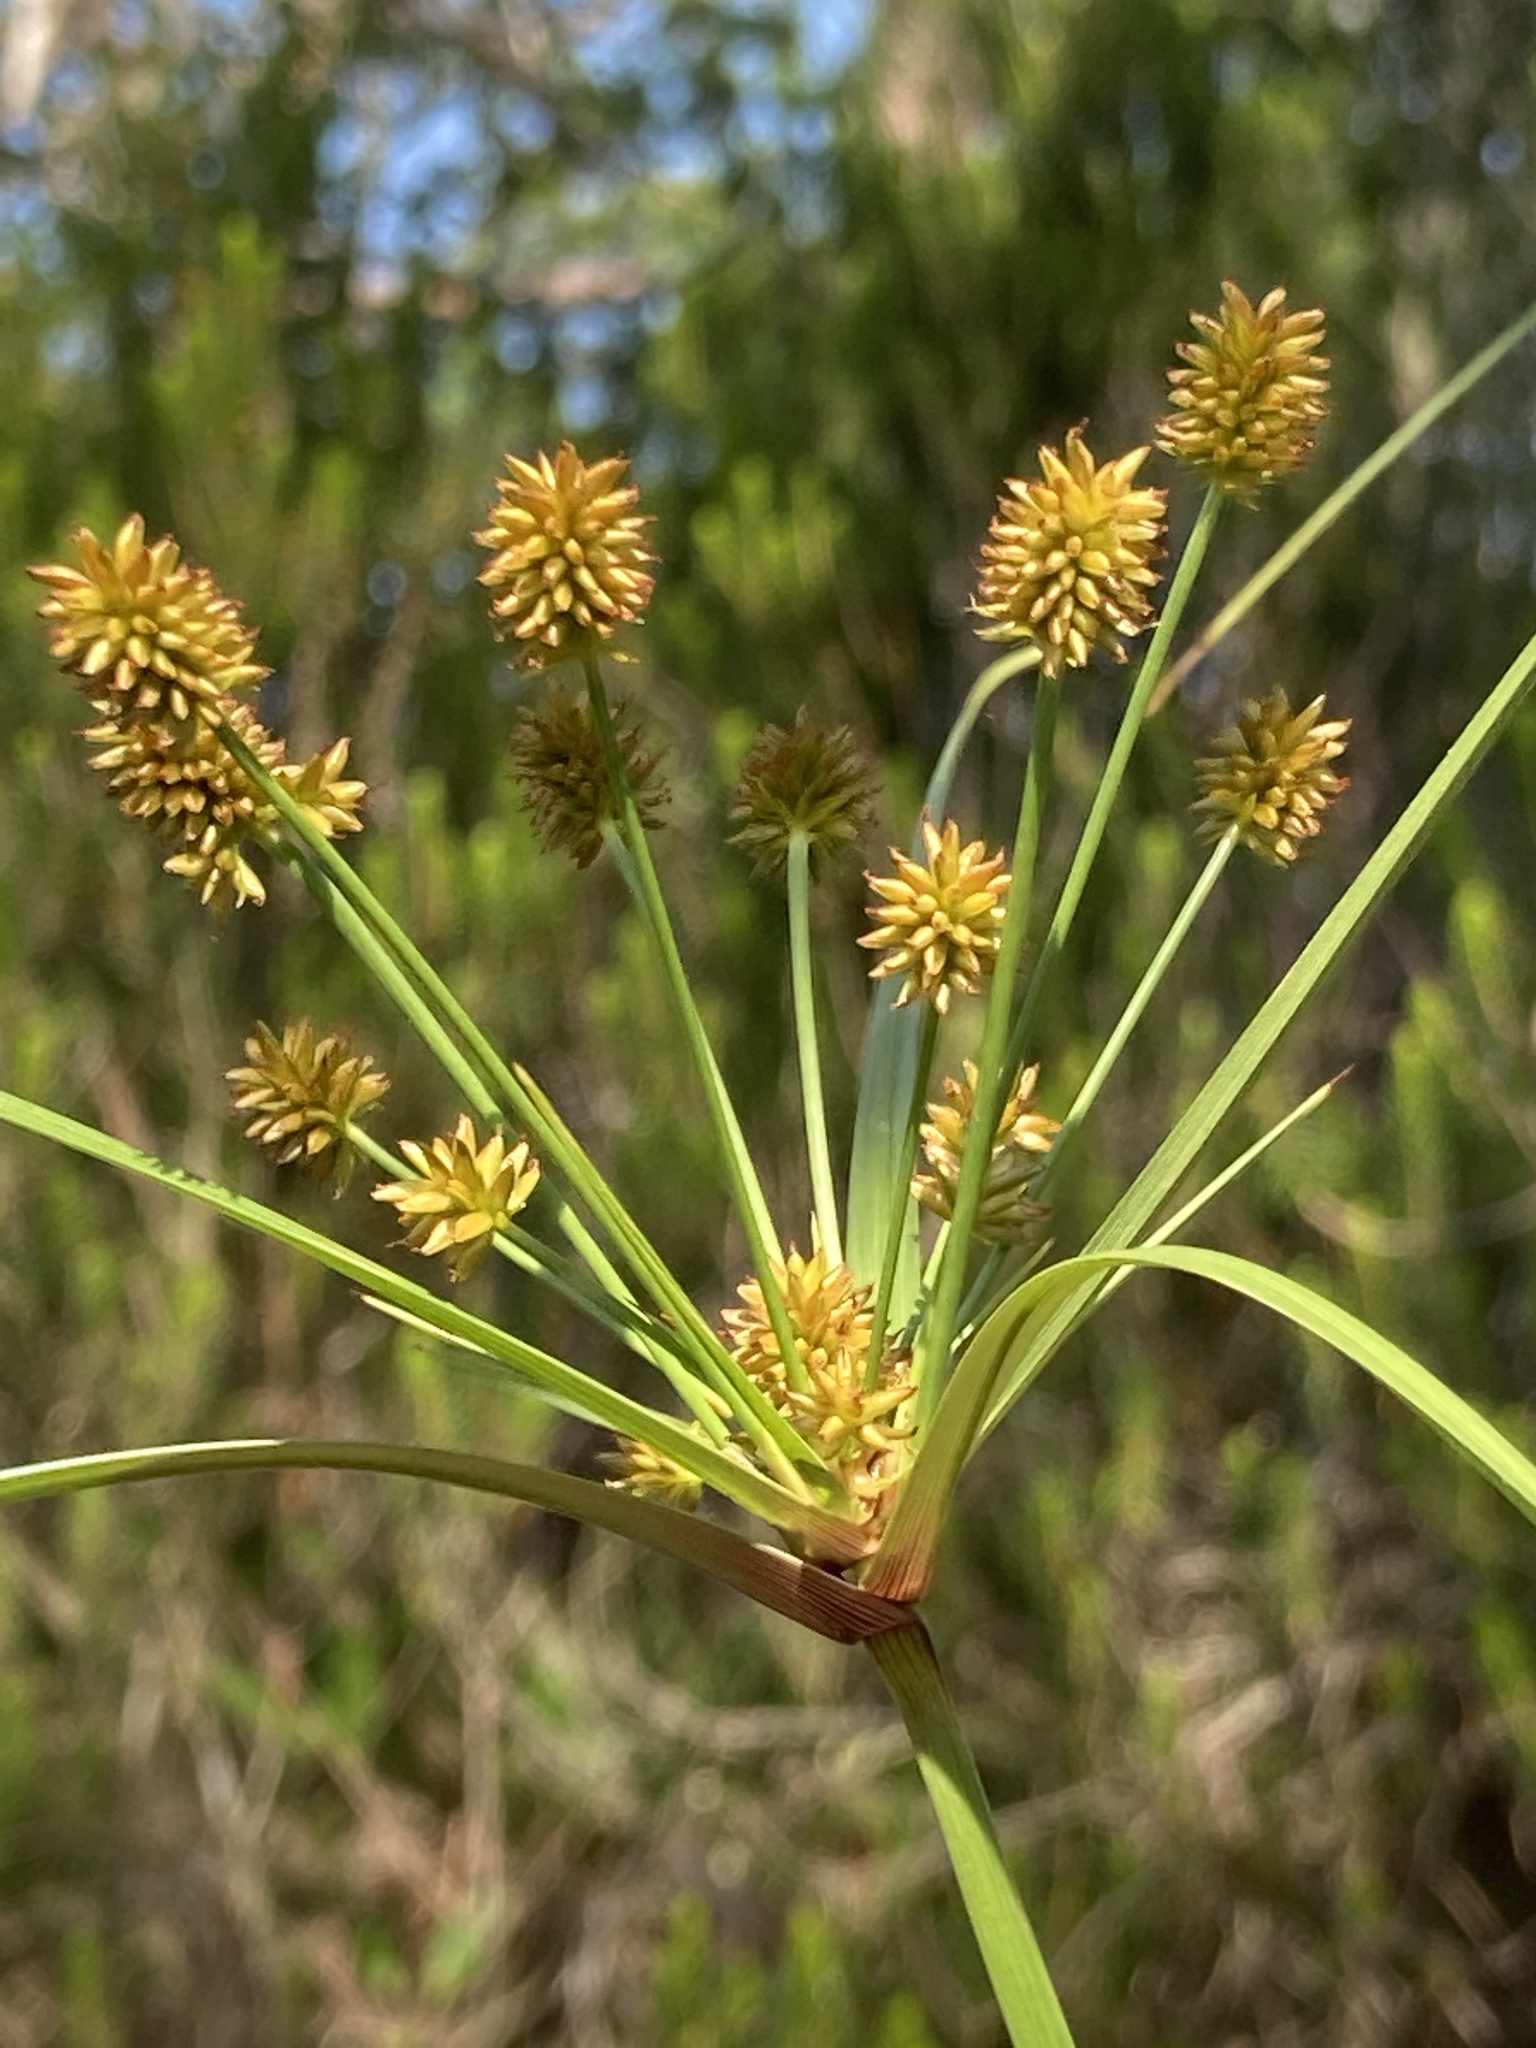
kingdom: Plantae
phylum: Tracheophyta
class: Liliopsida
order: Poales
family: Cyperaceae
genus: Cyperus
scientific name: Cyperus retrorsus
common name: Pinebarren flat sedge
